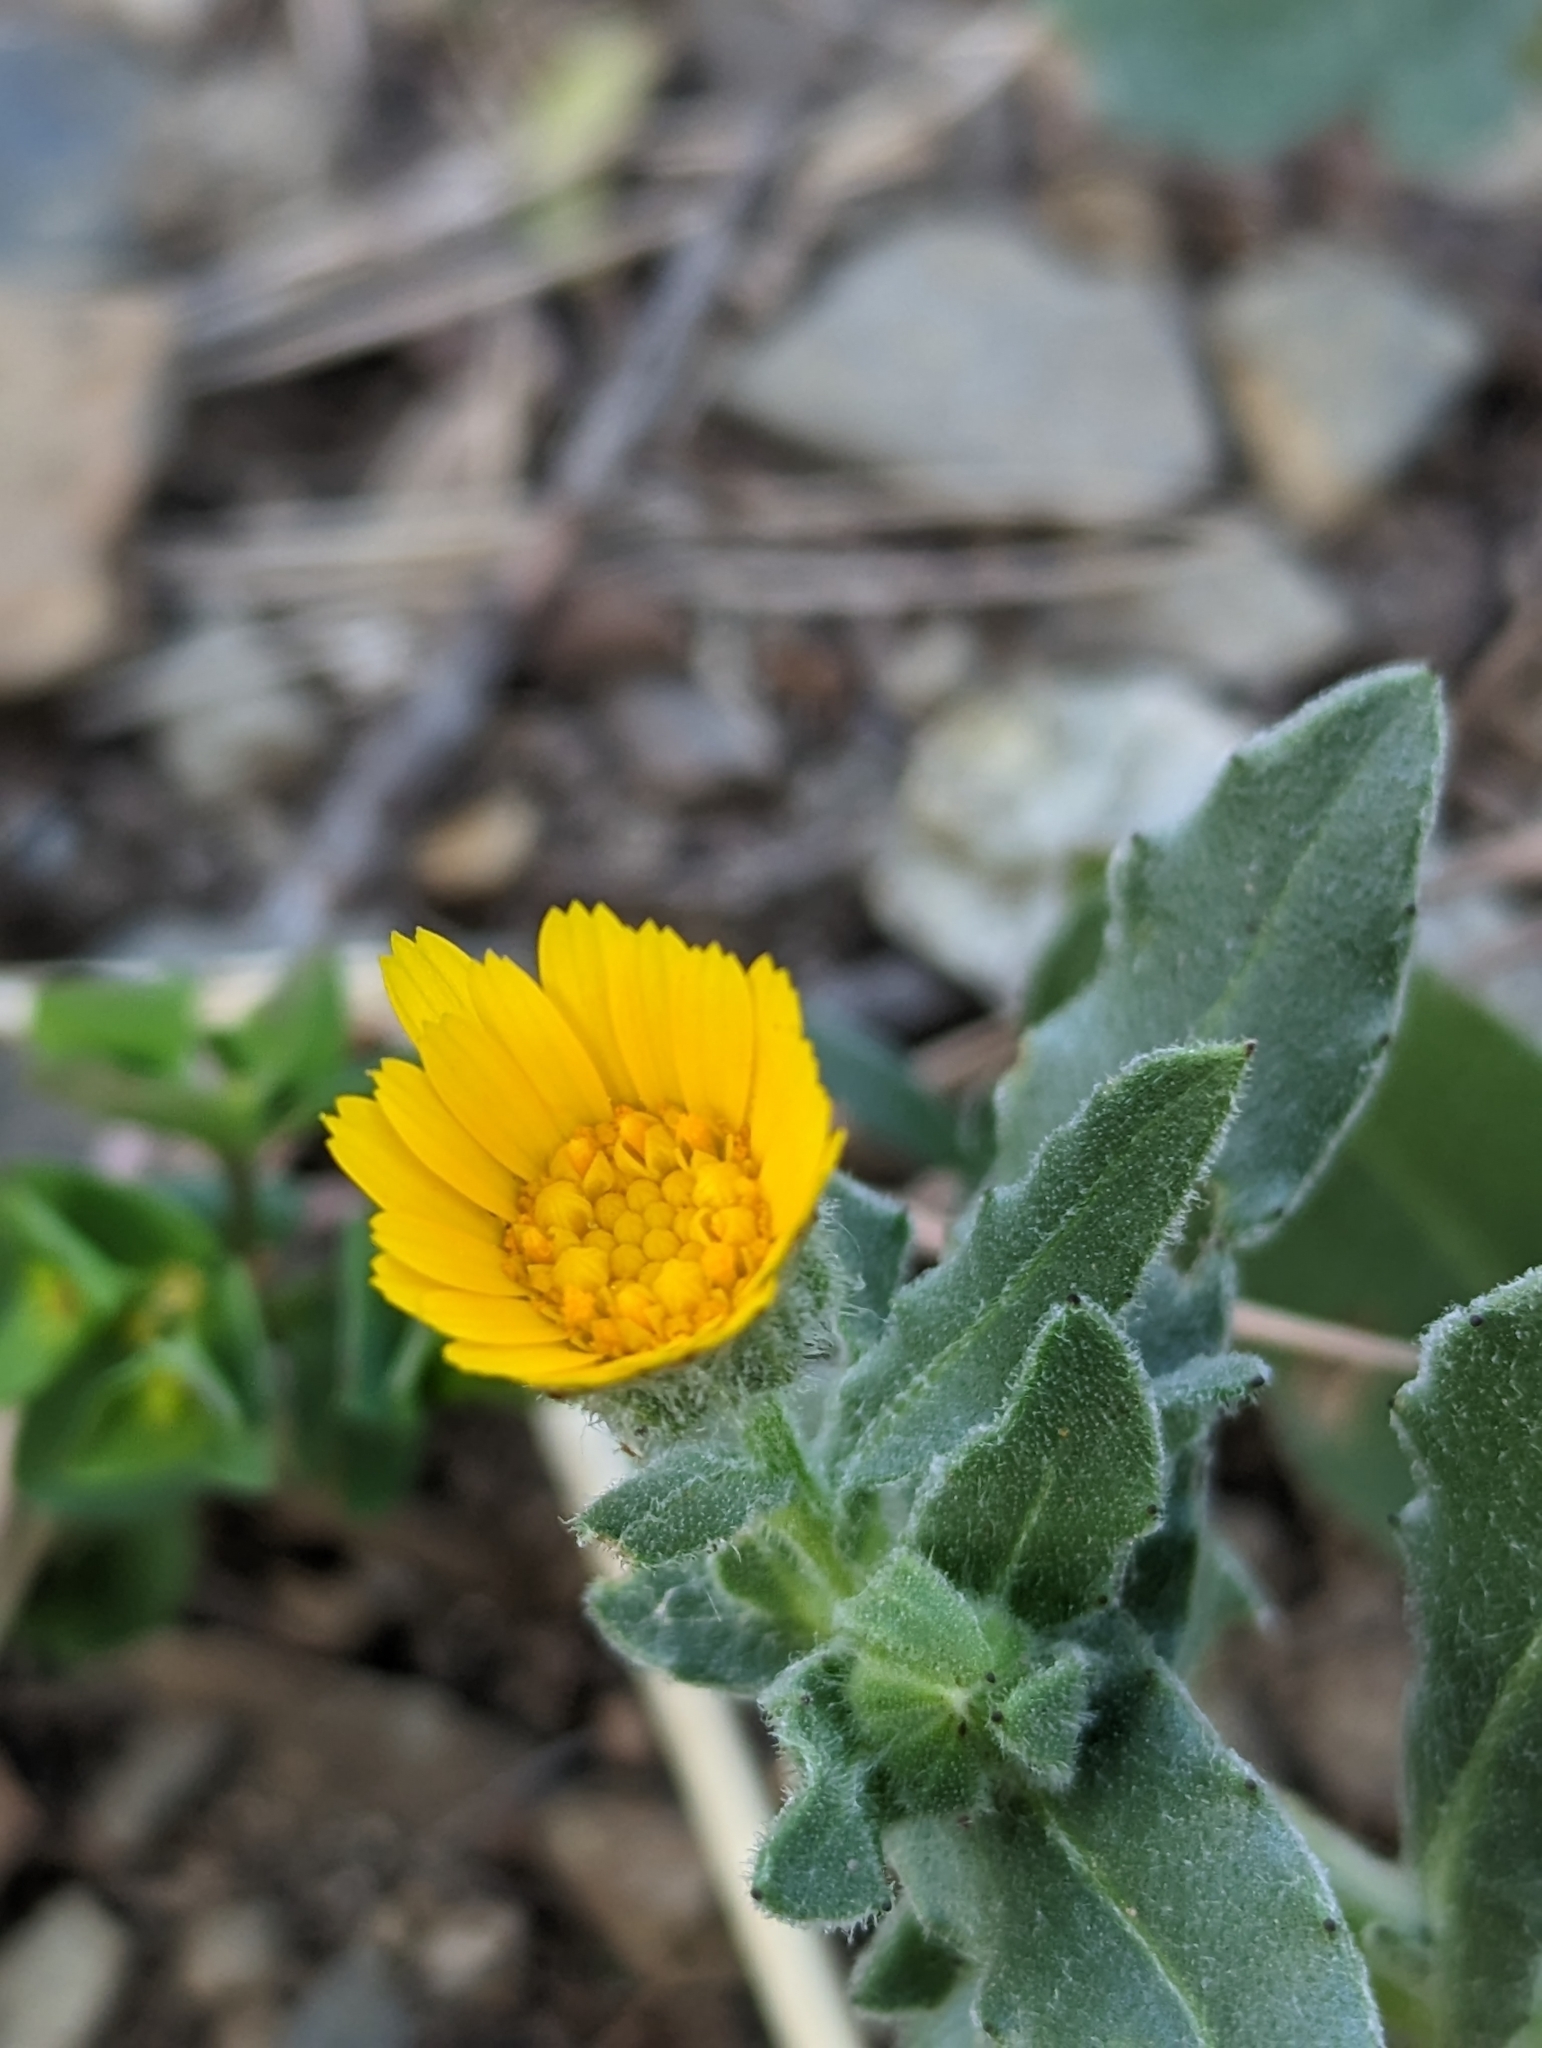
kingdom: Plantae
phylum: Tracheophyta
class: Magnoliopsida
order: Asterales
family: Asteraceae
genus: Calendula
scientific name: Calendula arvensis
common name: Field marigold
